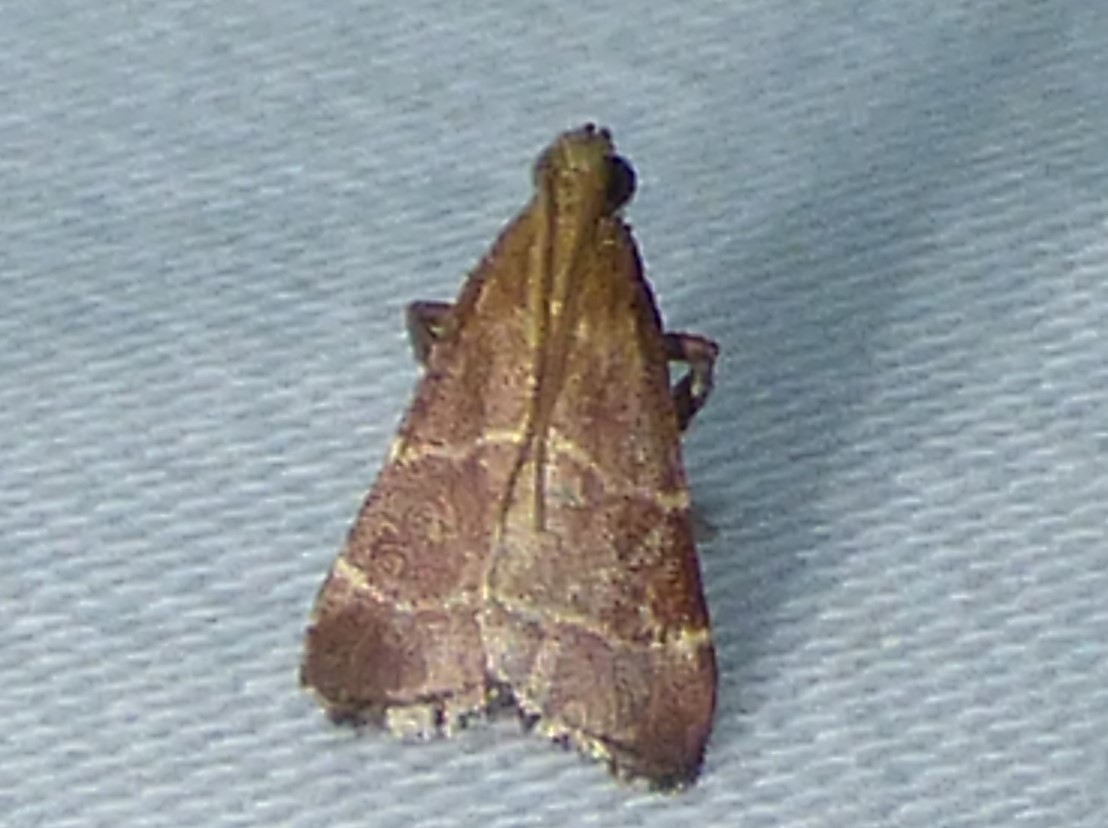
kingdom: Animalia
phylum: Arthropoda
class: Insecta
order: Lepidoptera
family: Pyralidae
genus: Arta
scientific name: Arta statalis
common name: Posturing arta moth
